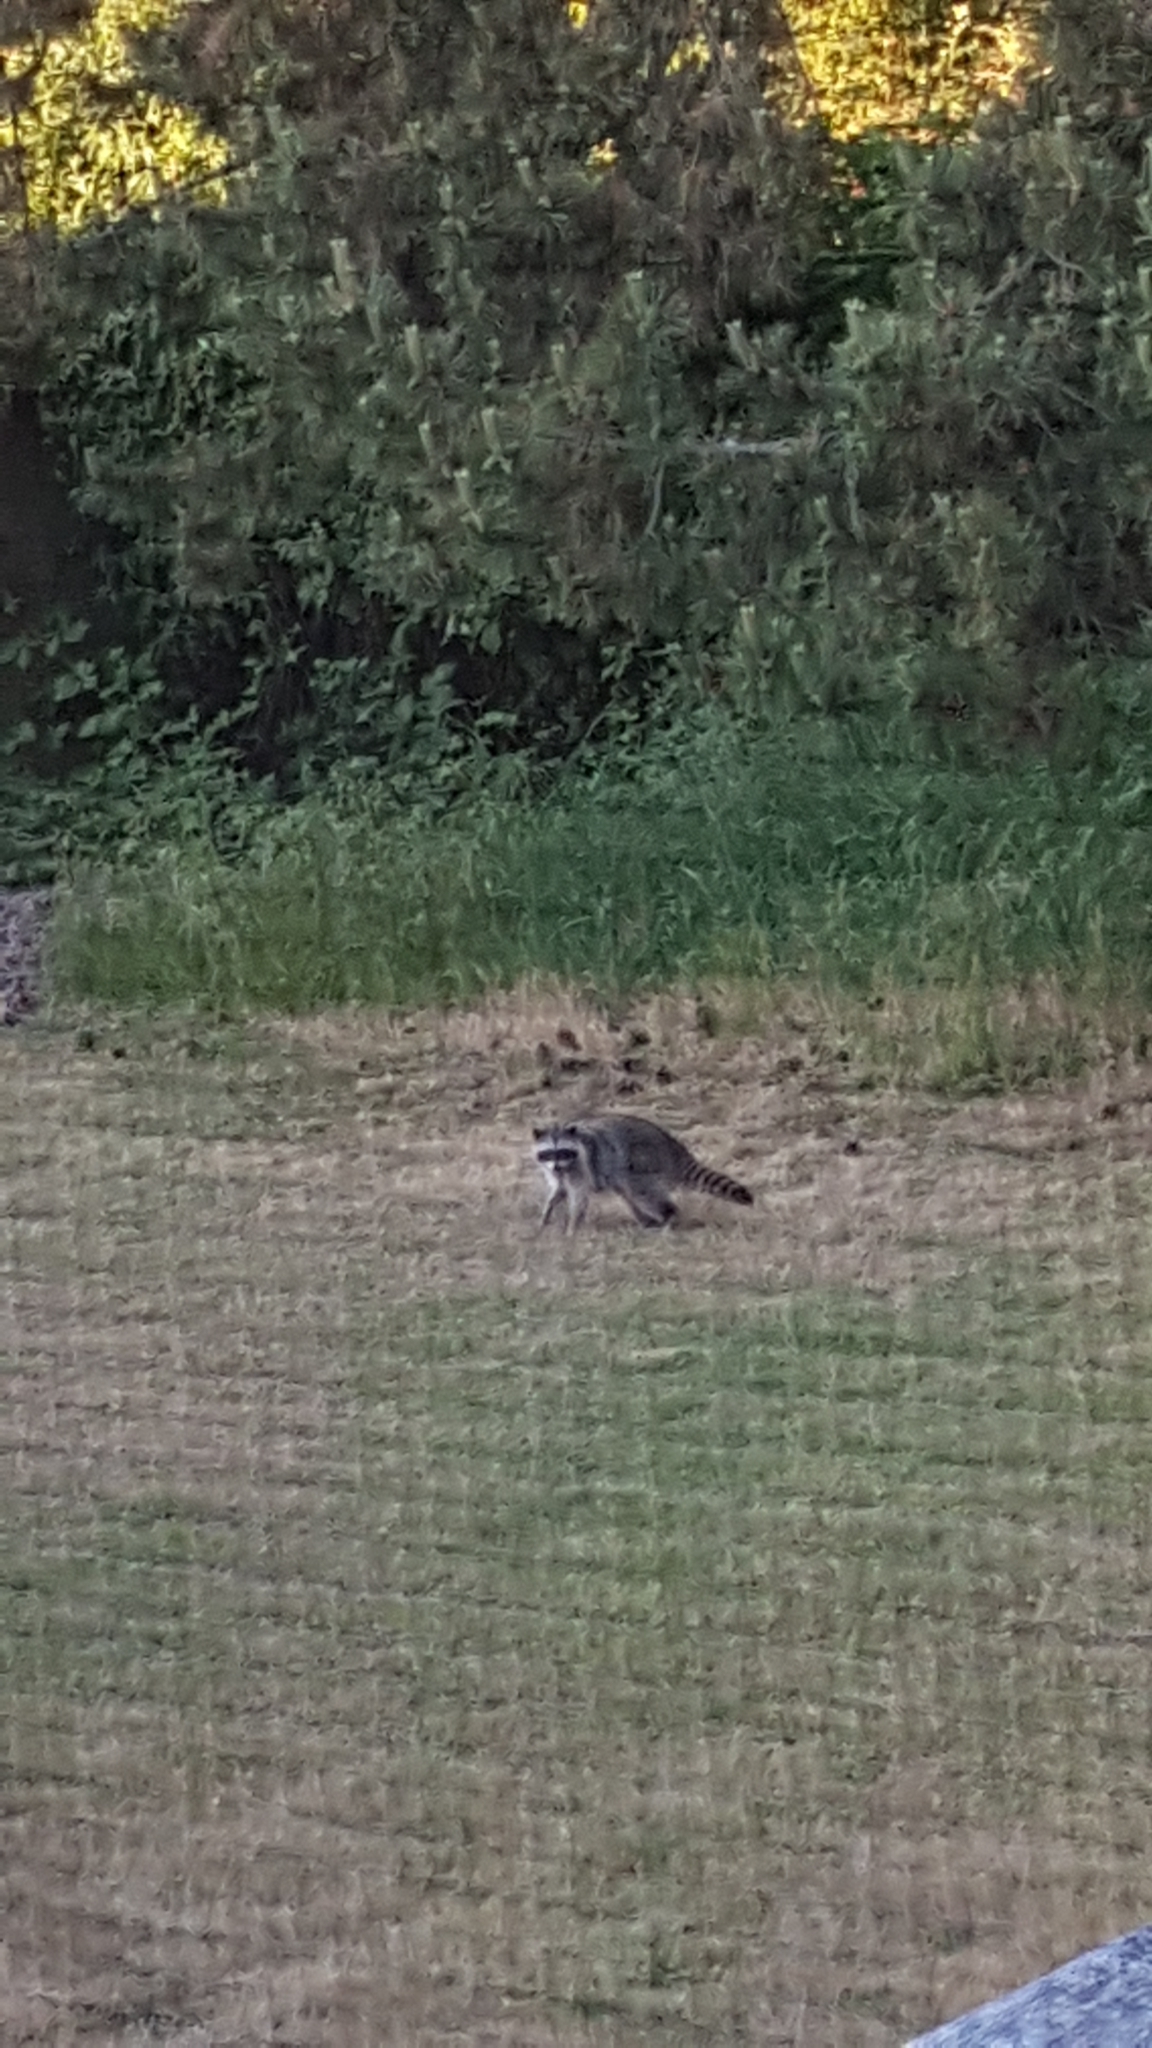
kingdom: Animalia
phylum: Chordata
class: Mammalia
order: Carnivora
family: Procyonidae
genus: Procyon
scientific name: Procyon lotor
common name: Raccoon
